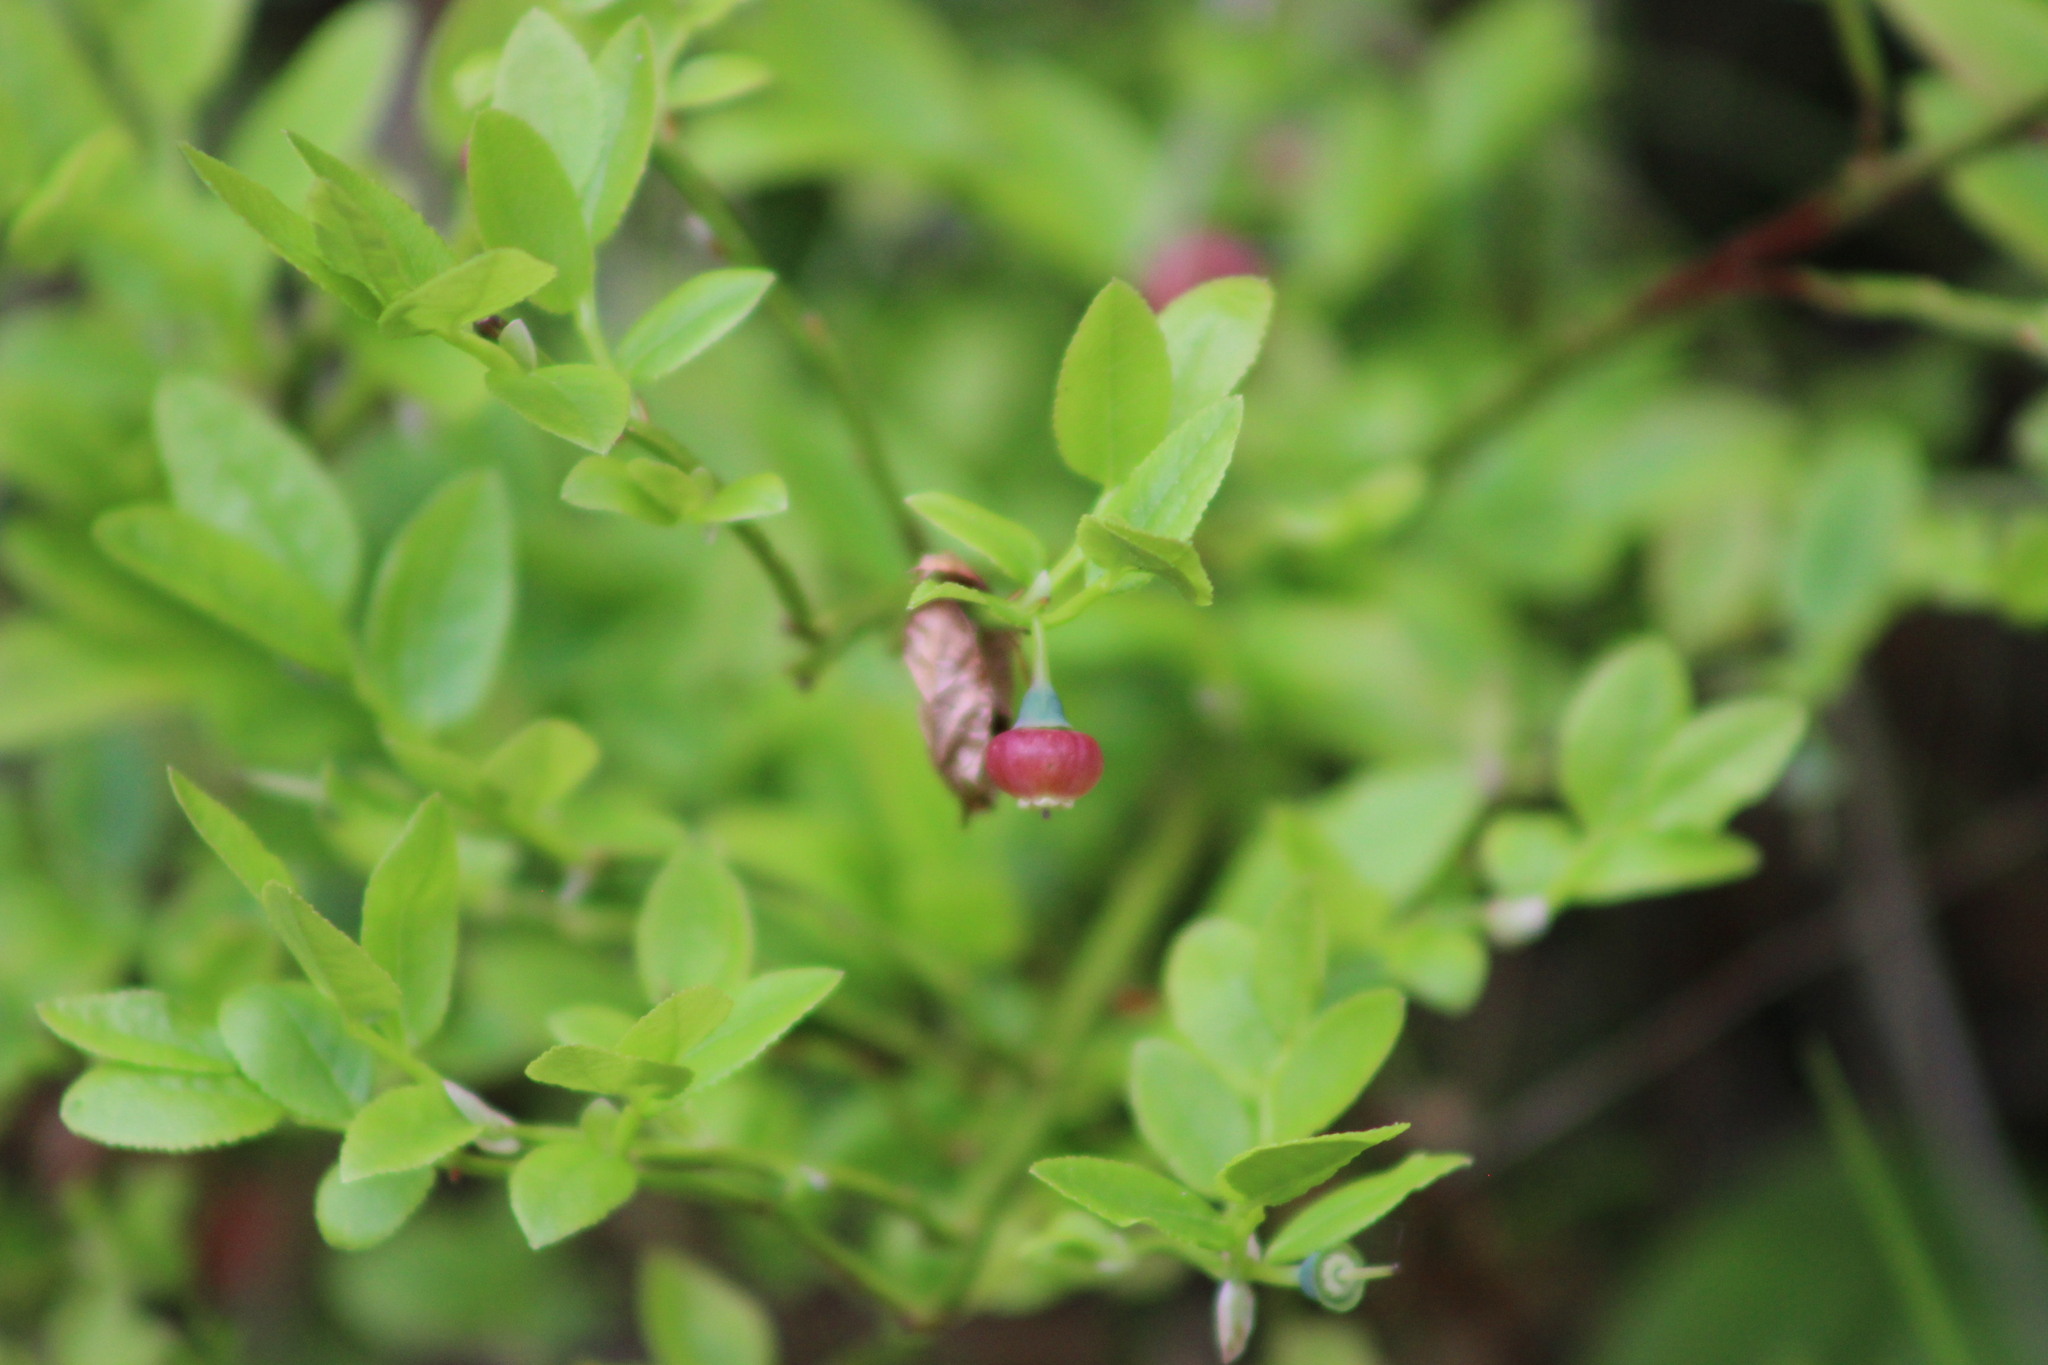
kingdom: Plantae
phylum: Tracheophyta
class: Magnoliopsida
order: Ericales
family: Ericaceae
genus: Vaccinium
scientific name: Vaccinium myrtillus
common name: Bilberry
